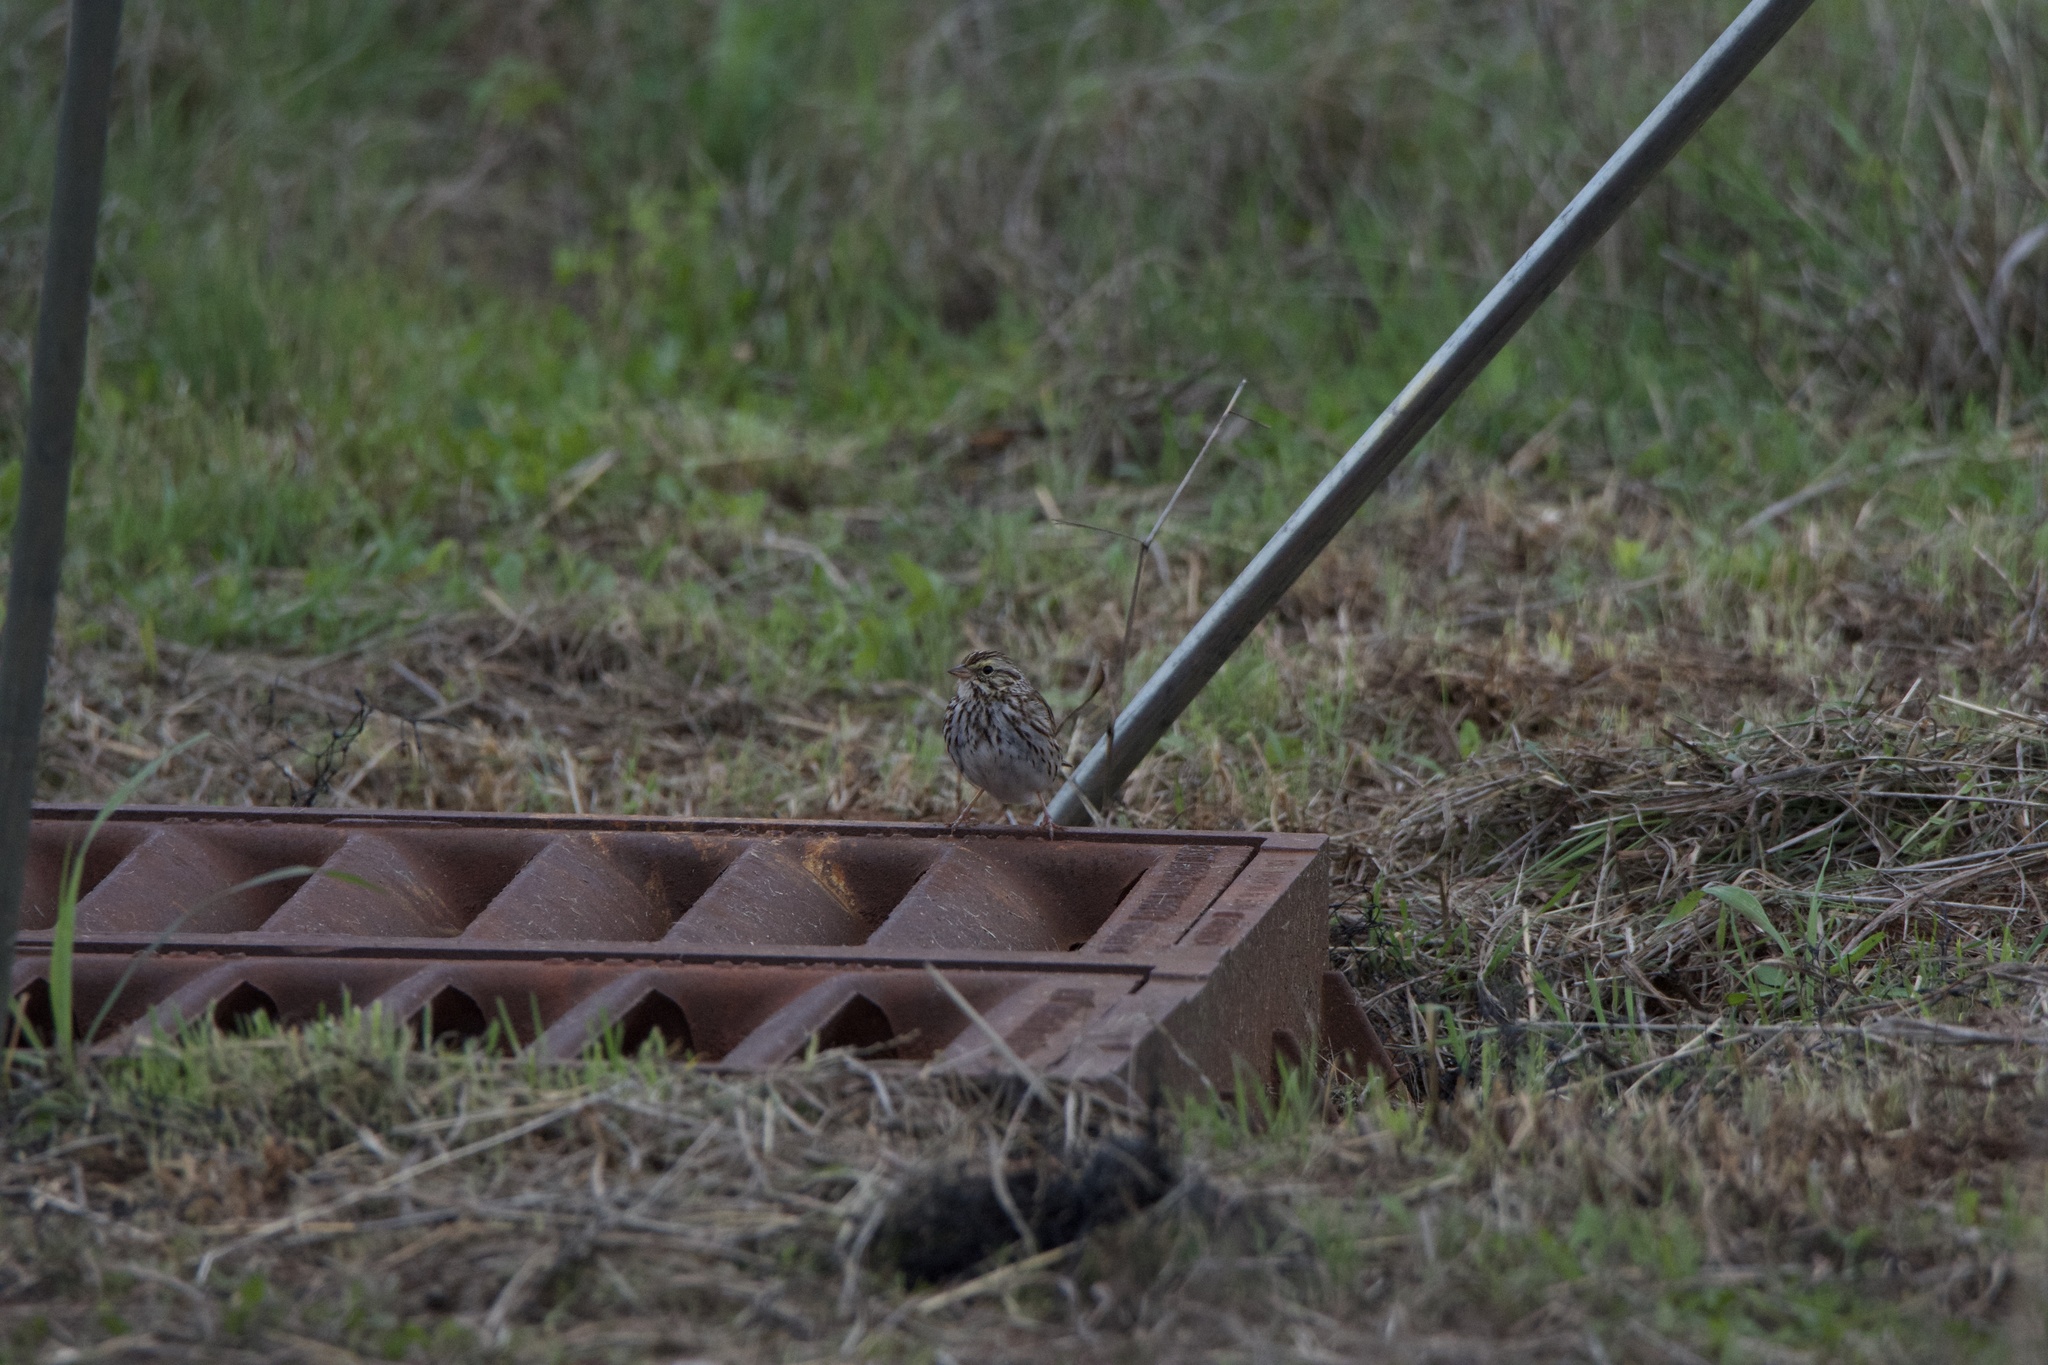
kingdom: Animalia
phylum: Chordata
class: Aves
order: Passeriformes
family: Passerellidae
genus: Passerculus
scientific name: Passerculus sandwichensis
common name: Savannah sparrow
